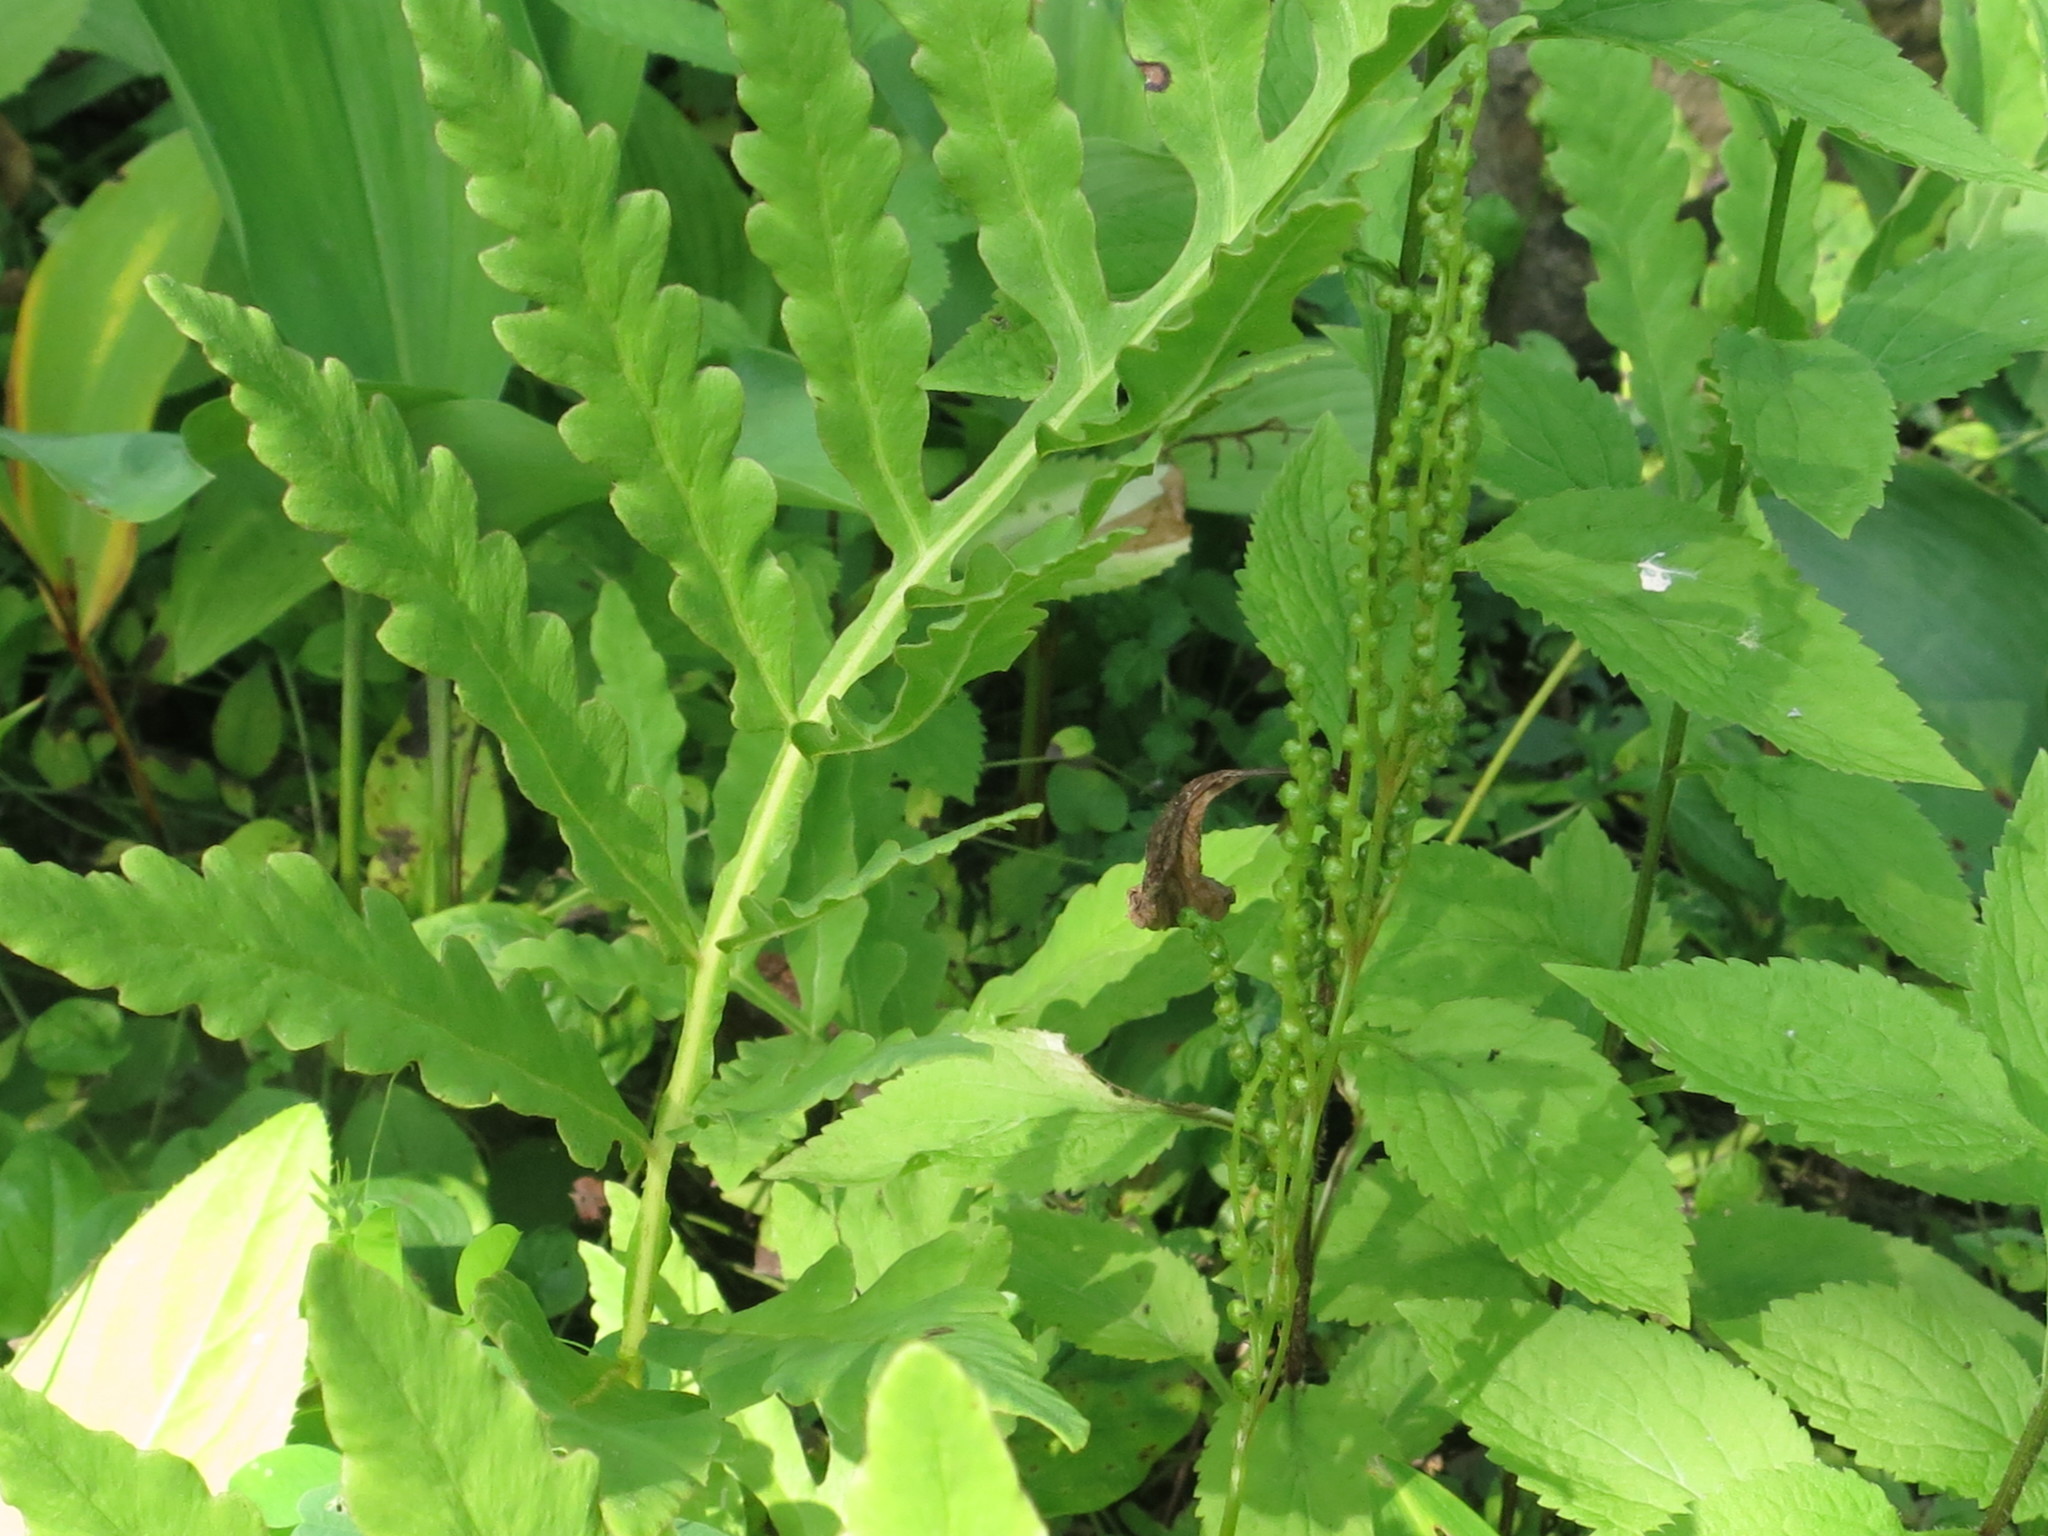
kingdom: Plantae
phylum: Tracheophyta
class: Polypodiopsida
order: Polypodiales
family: Onocleaceae
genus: Onoclea
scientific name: Onoclea sensibilis
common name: Sensitive fern
